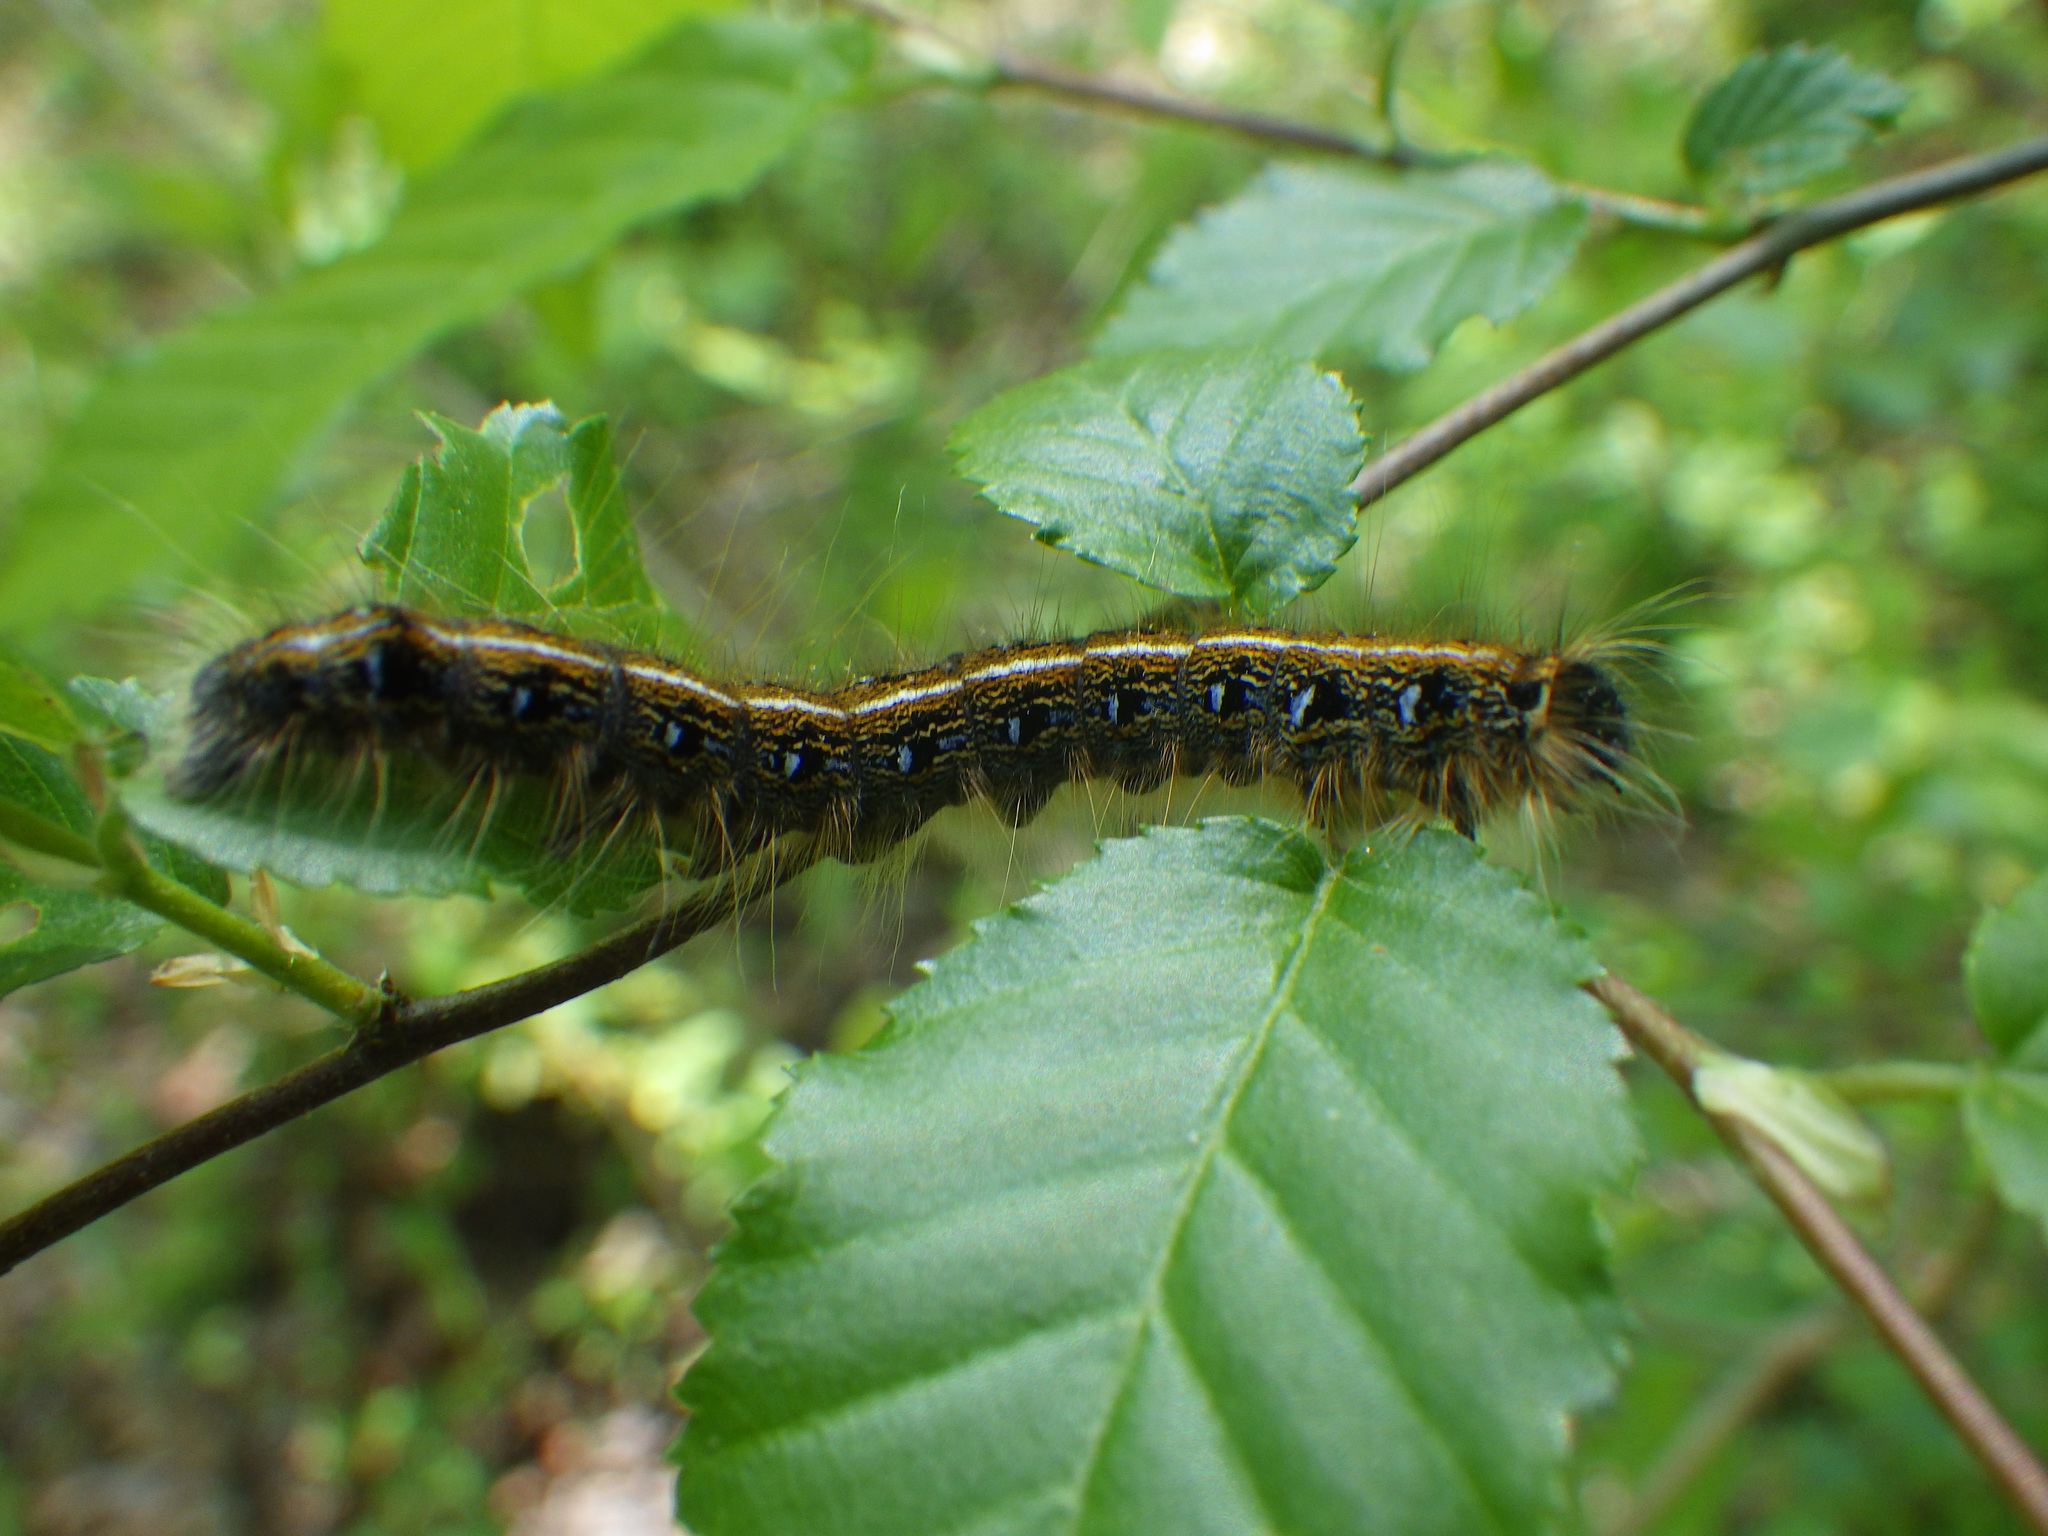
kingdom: Animalia
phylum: Arthropoda
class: Insecta
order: Lepidoptera
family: Lasiocampidae
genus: Malacosoma
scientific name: Malacosoma americana
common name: Eastern tent caterpillar moth
